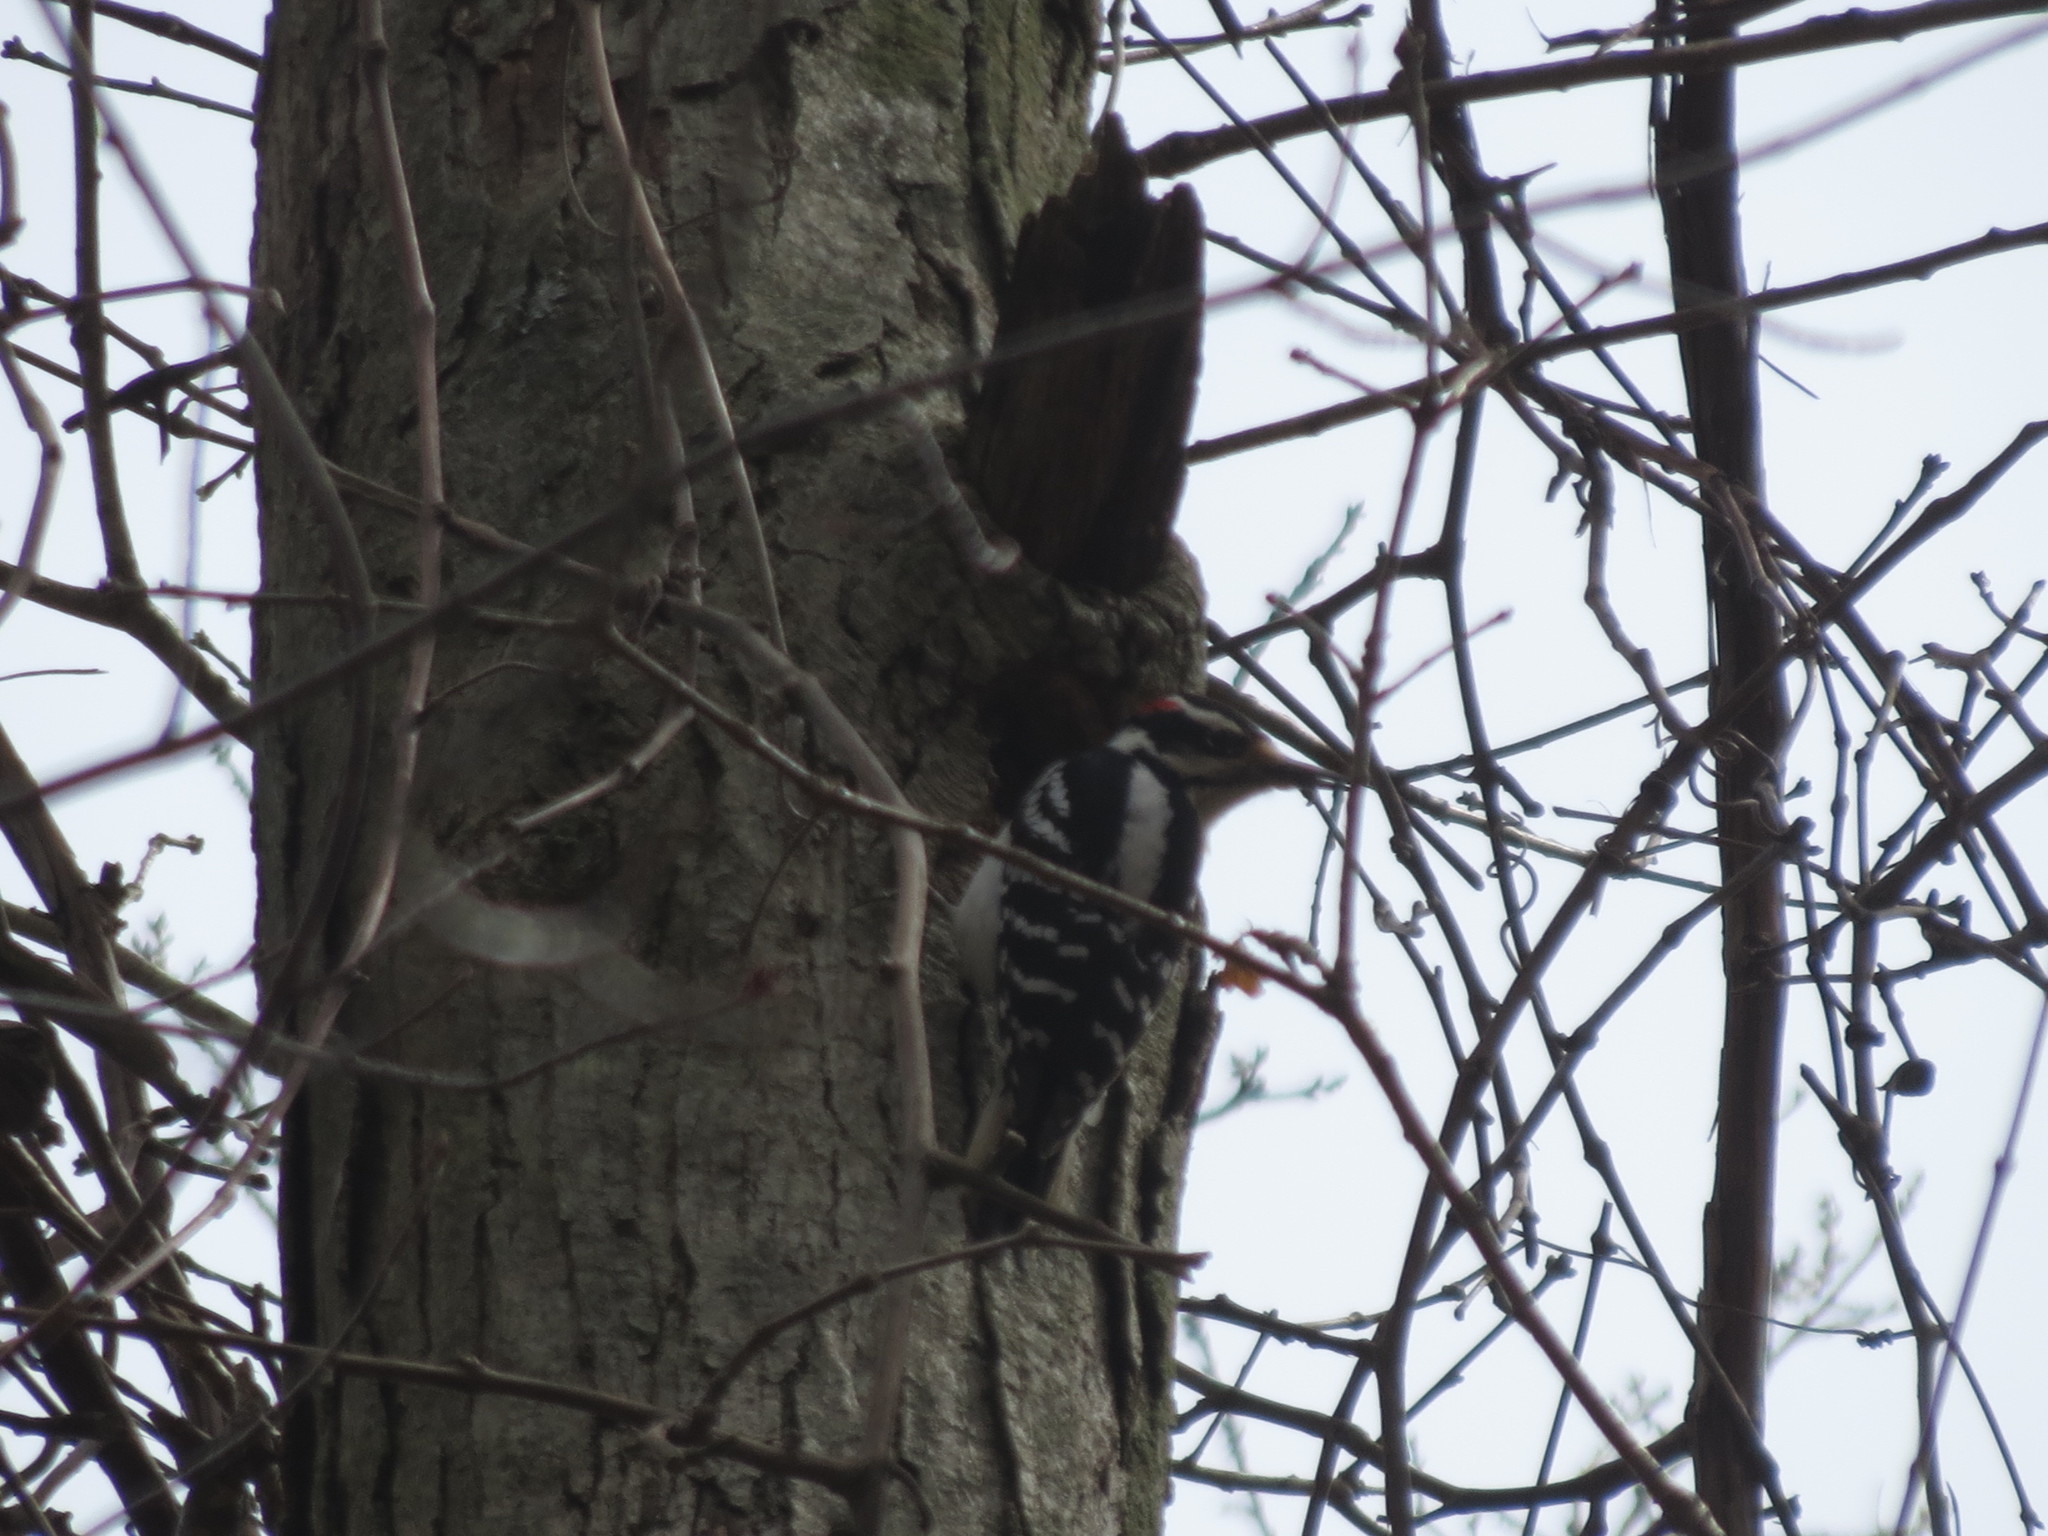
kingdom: Animalia
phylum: Chordata
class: Aves
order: Piciformes
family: Picidae
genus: Leuconotopicus
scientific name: Leuconotopicus villosus
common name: Hairy woodpecker
